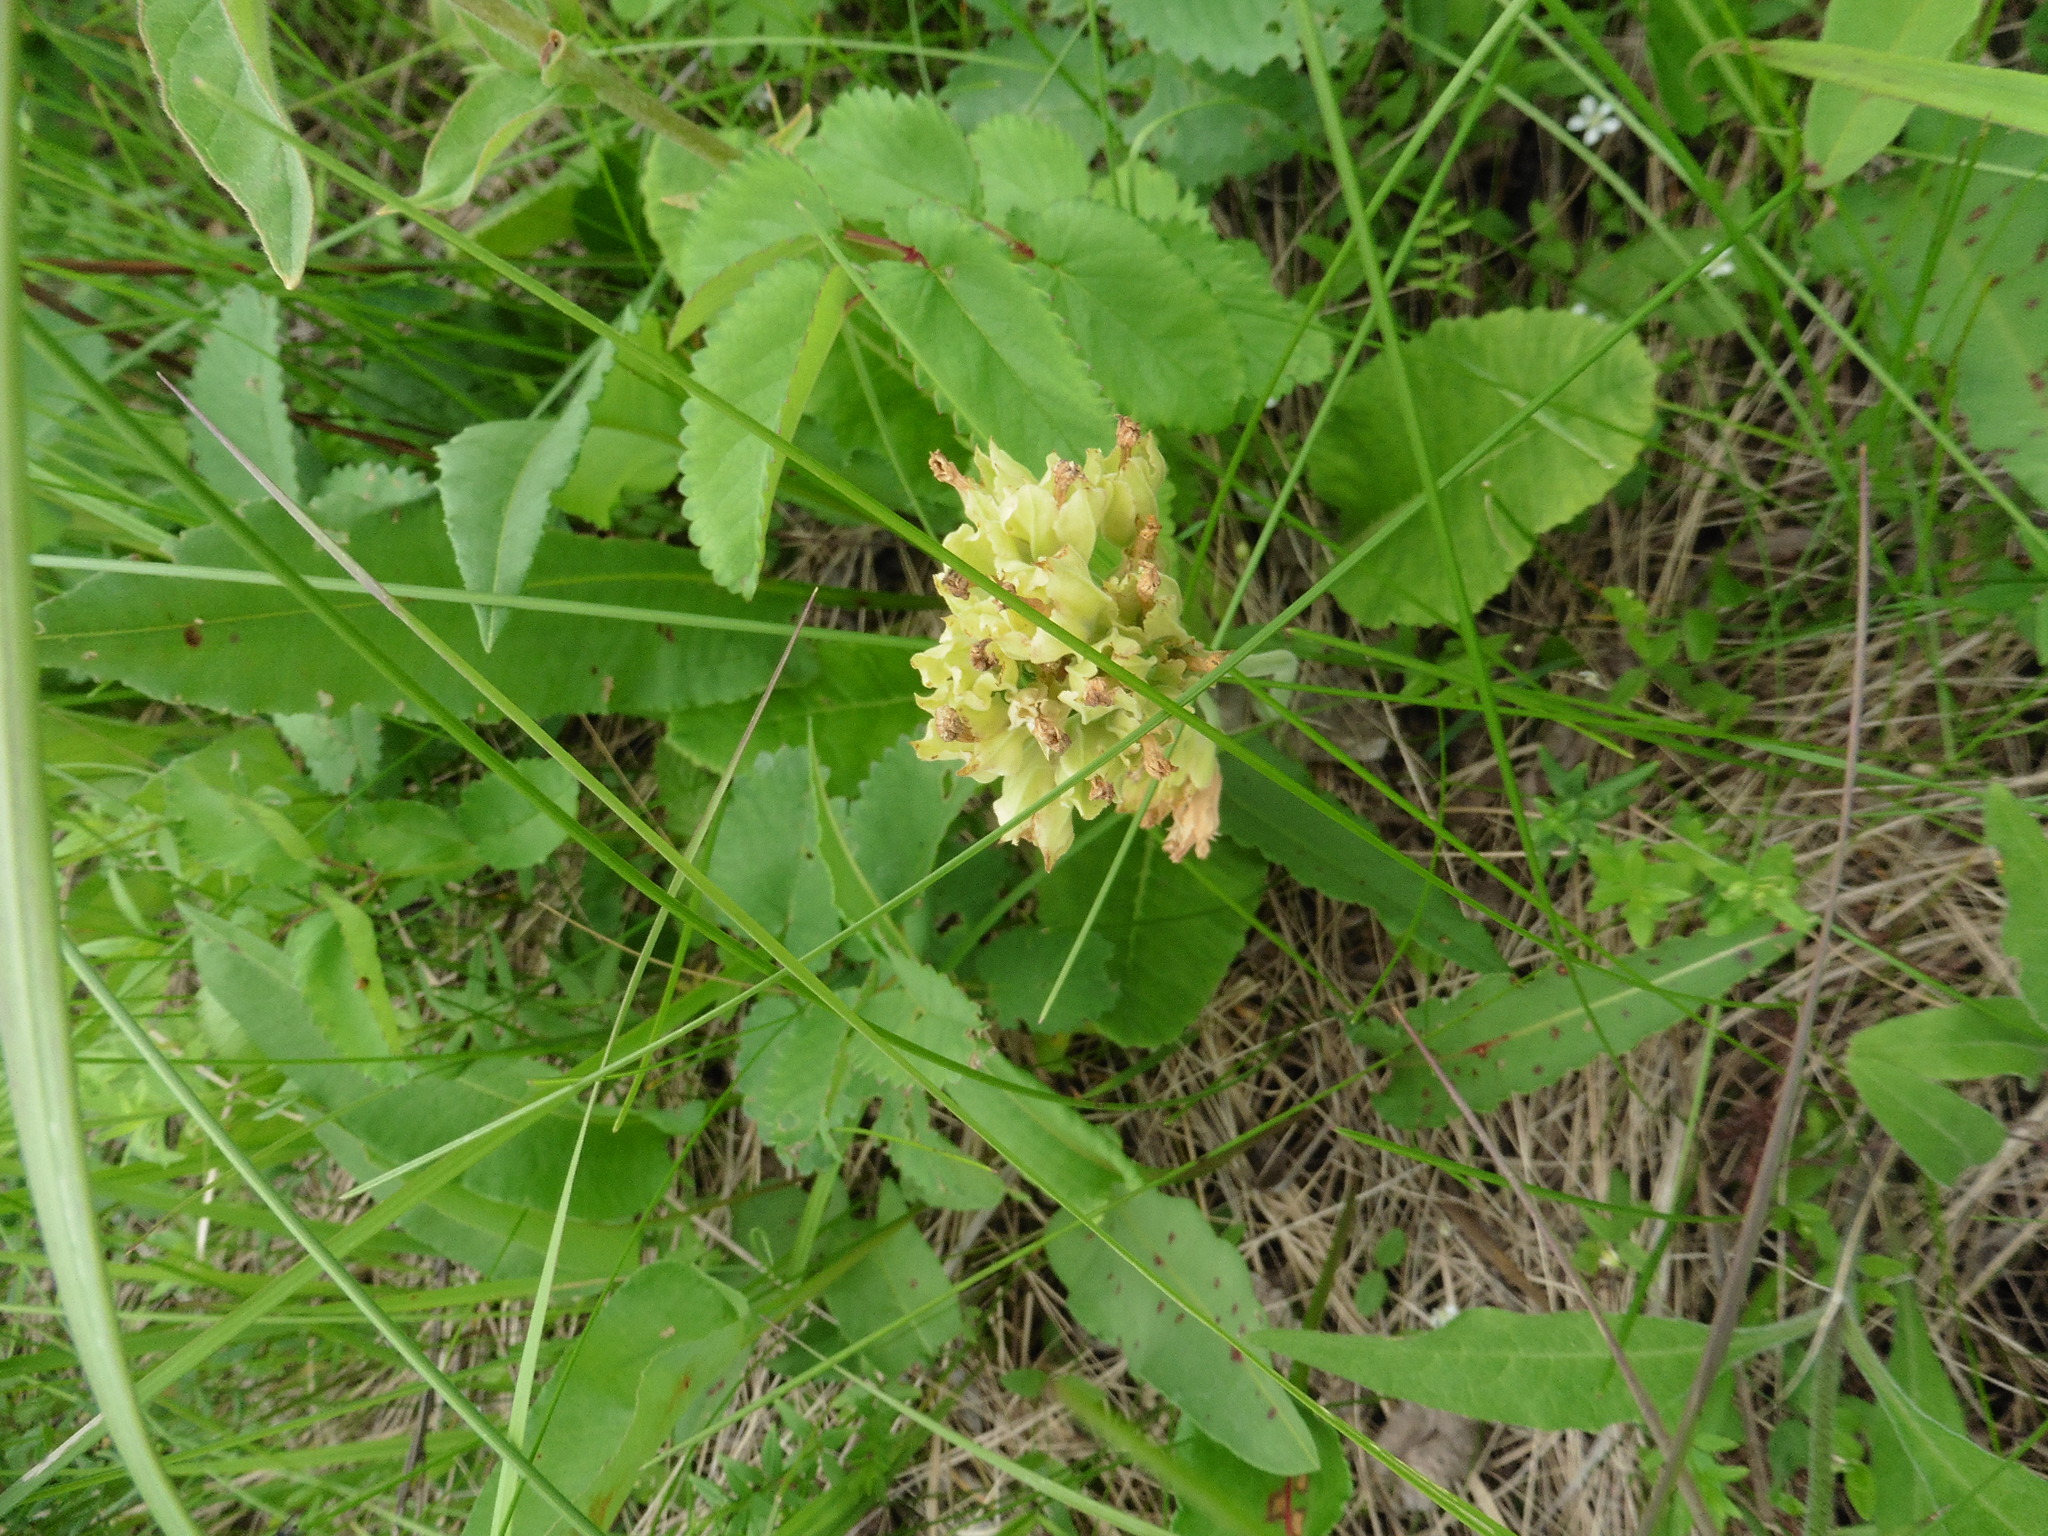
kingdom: Plantae
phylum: Tracheophyta
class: Magnoliopsida
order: Ericales
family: Primulaceae
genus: Primula
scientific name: Primula veris
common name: Cowslip
